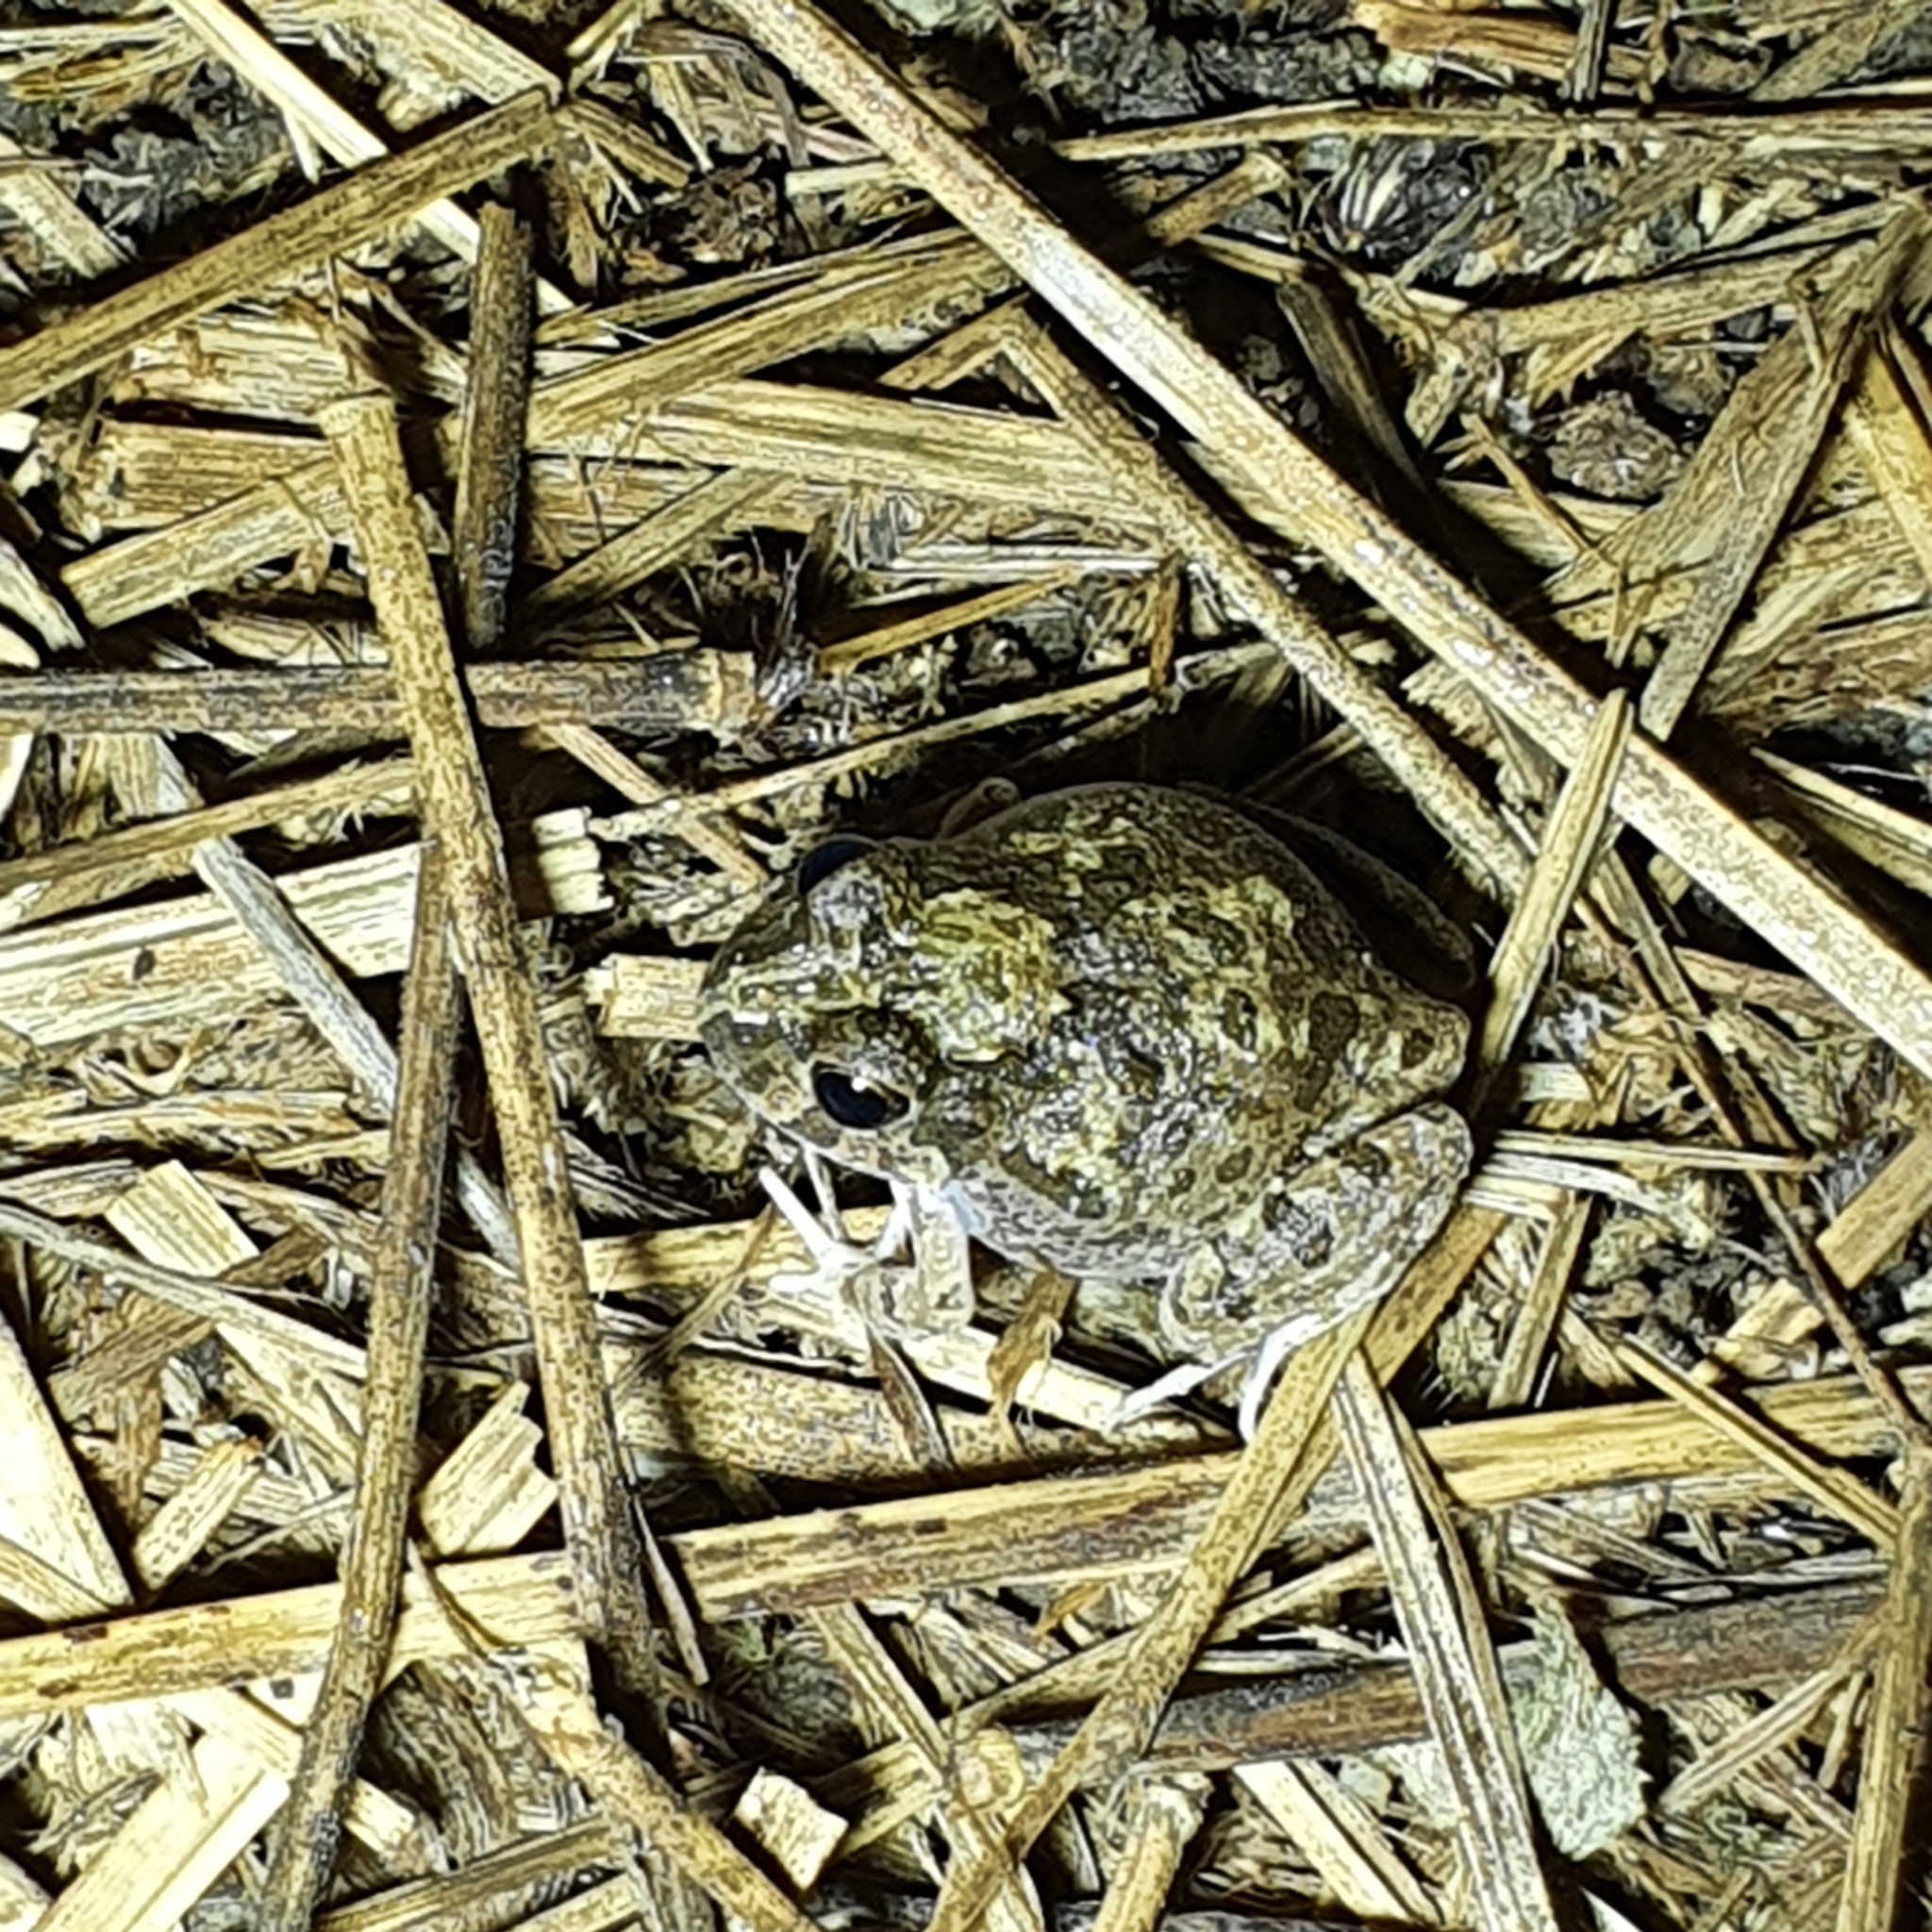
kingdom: Animalia
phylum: Chordata
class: Amphibia
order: Anura
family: Limnodynastidae
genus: Platyplectrum
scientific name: Platyplectrum ornatum
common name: Ornate burrowing frog
